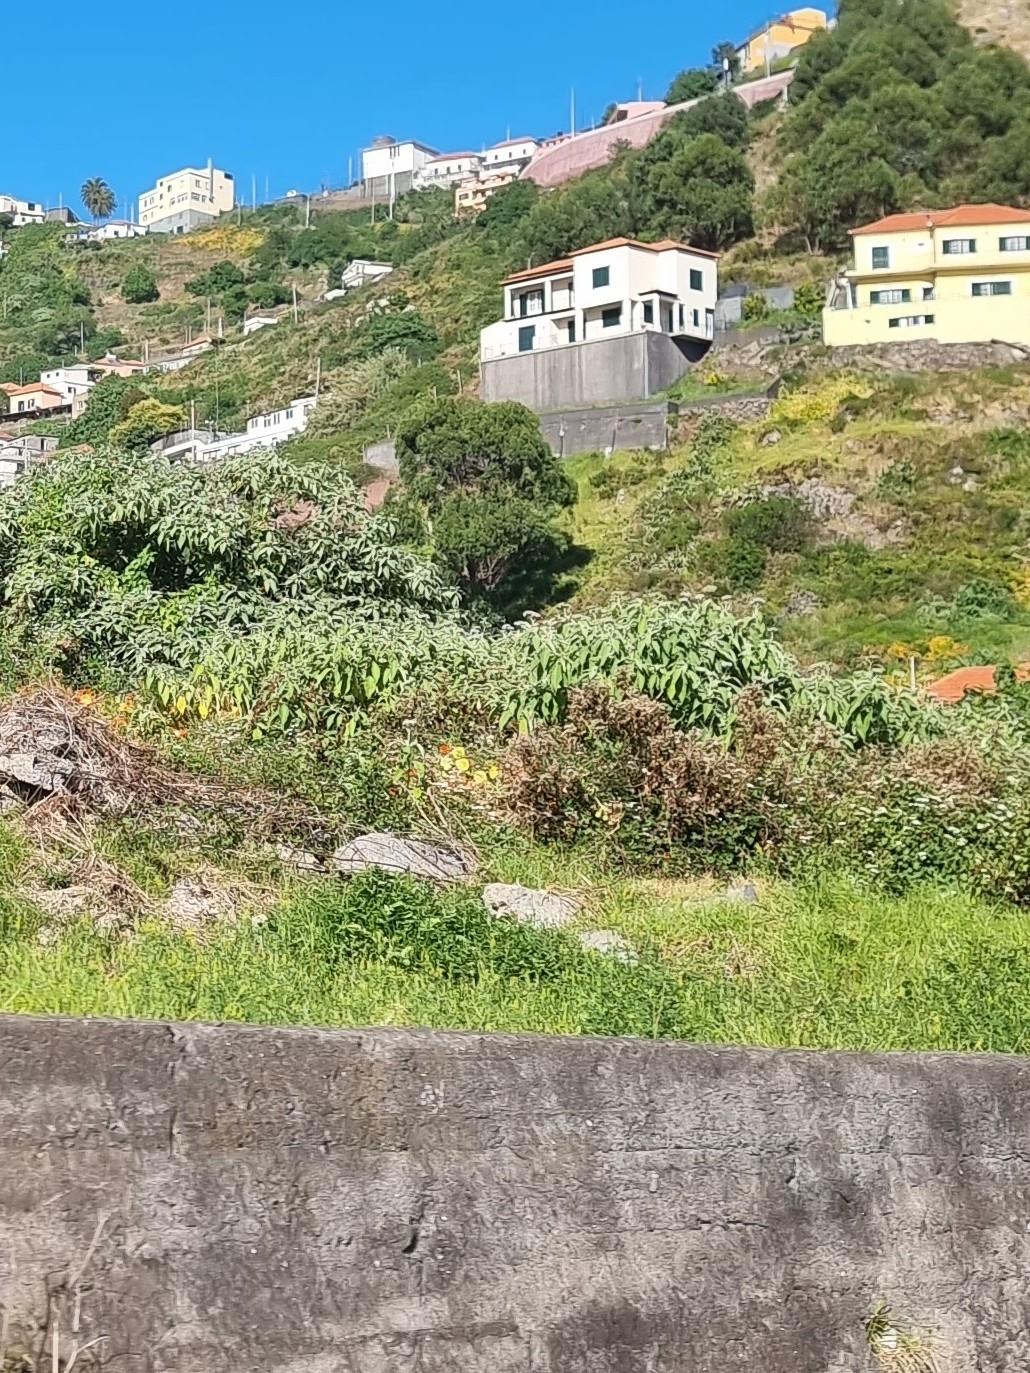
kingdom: Plantae
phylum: Tracheophyta
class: Magnoliopsida
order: Solanales
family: Solanaceae
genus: Solanum
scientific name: Solanum mauritianum
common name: Earleaf nightshade
